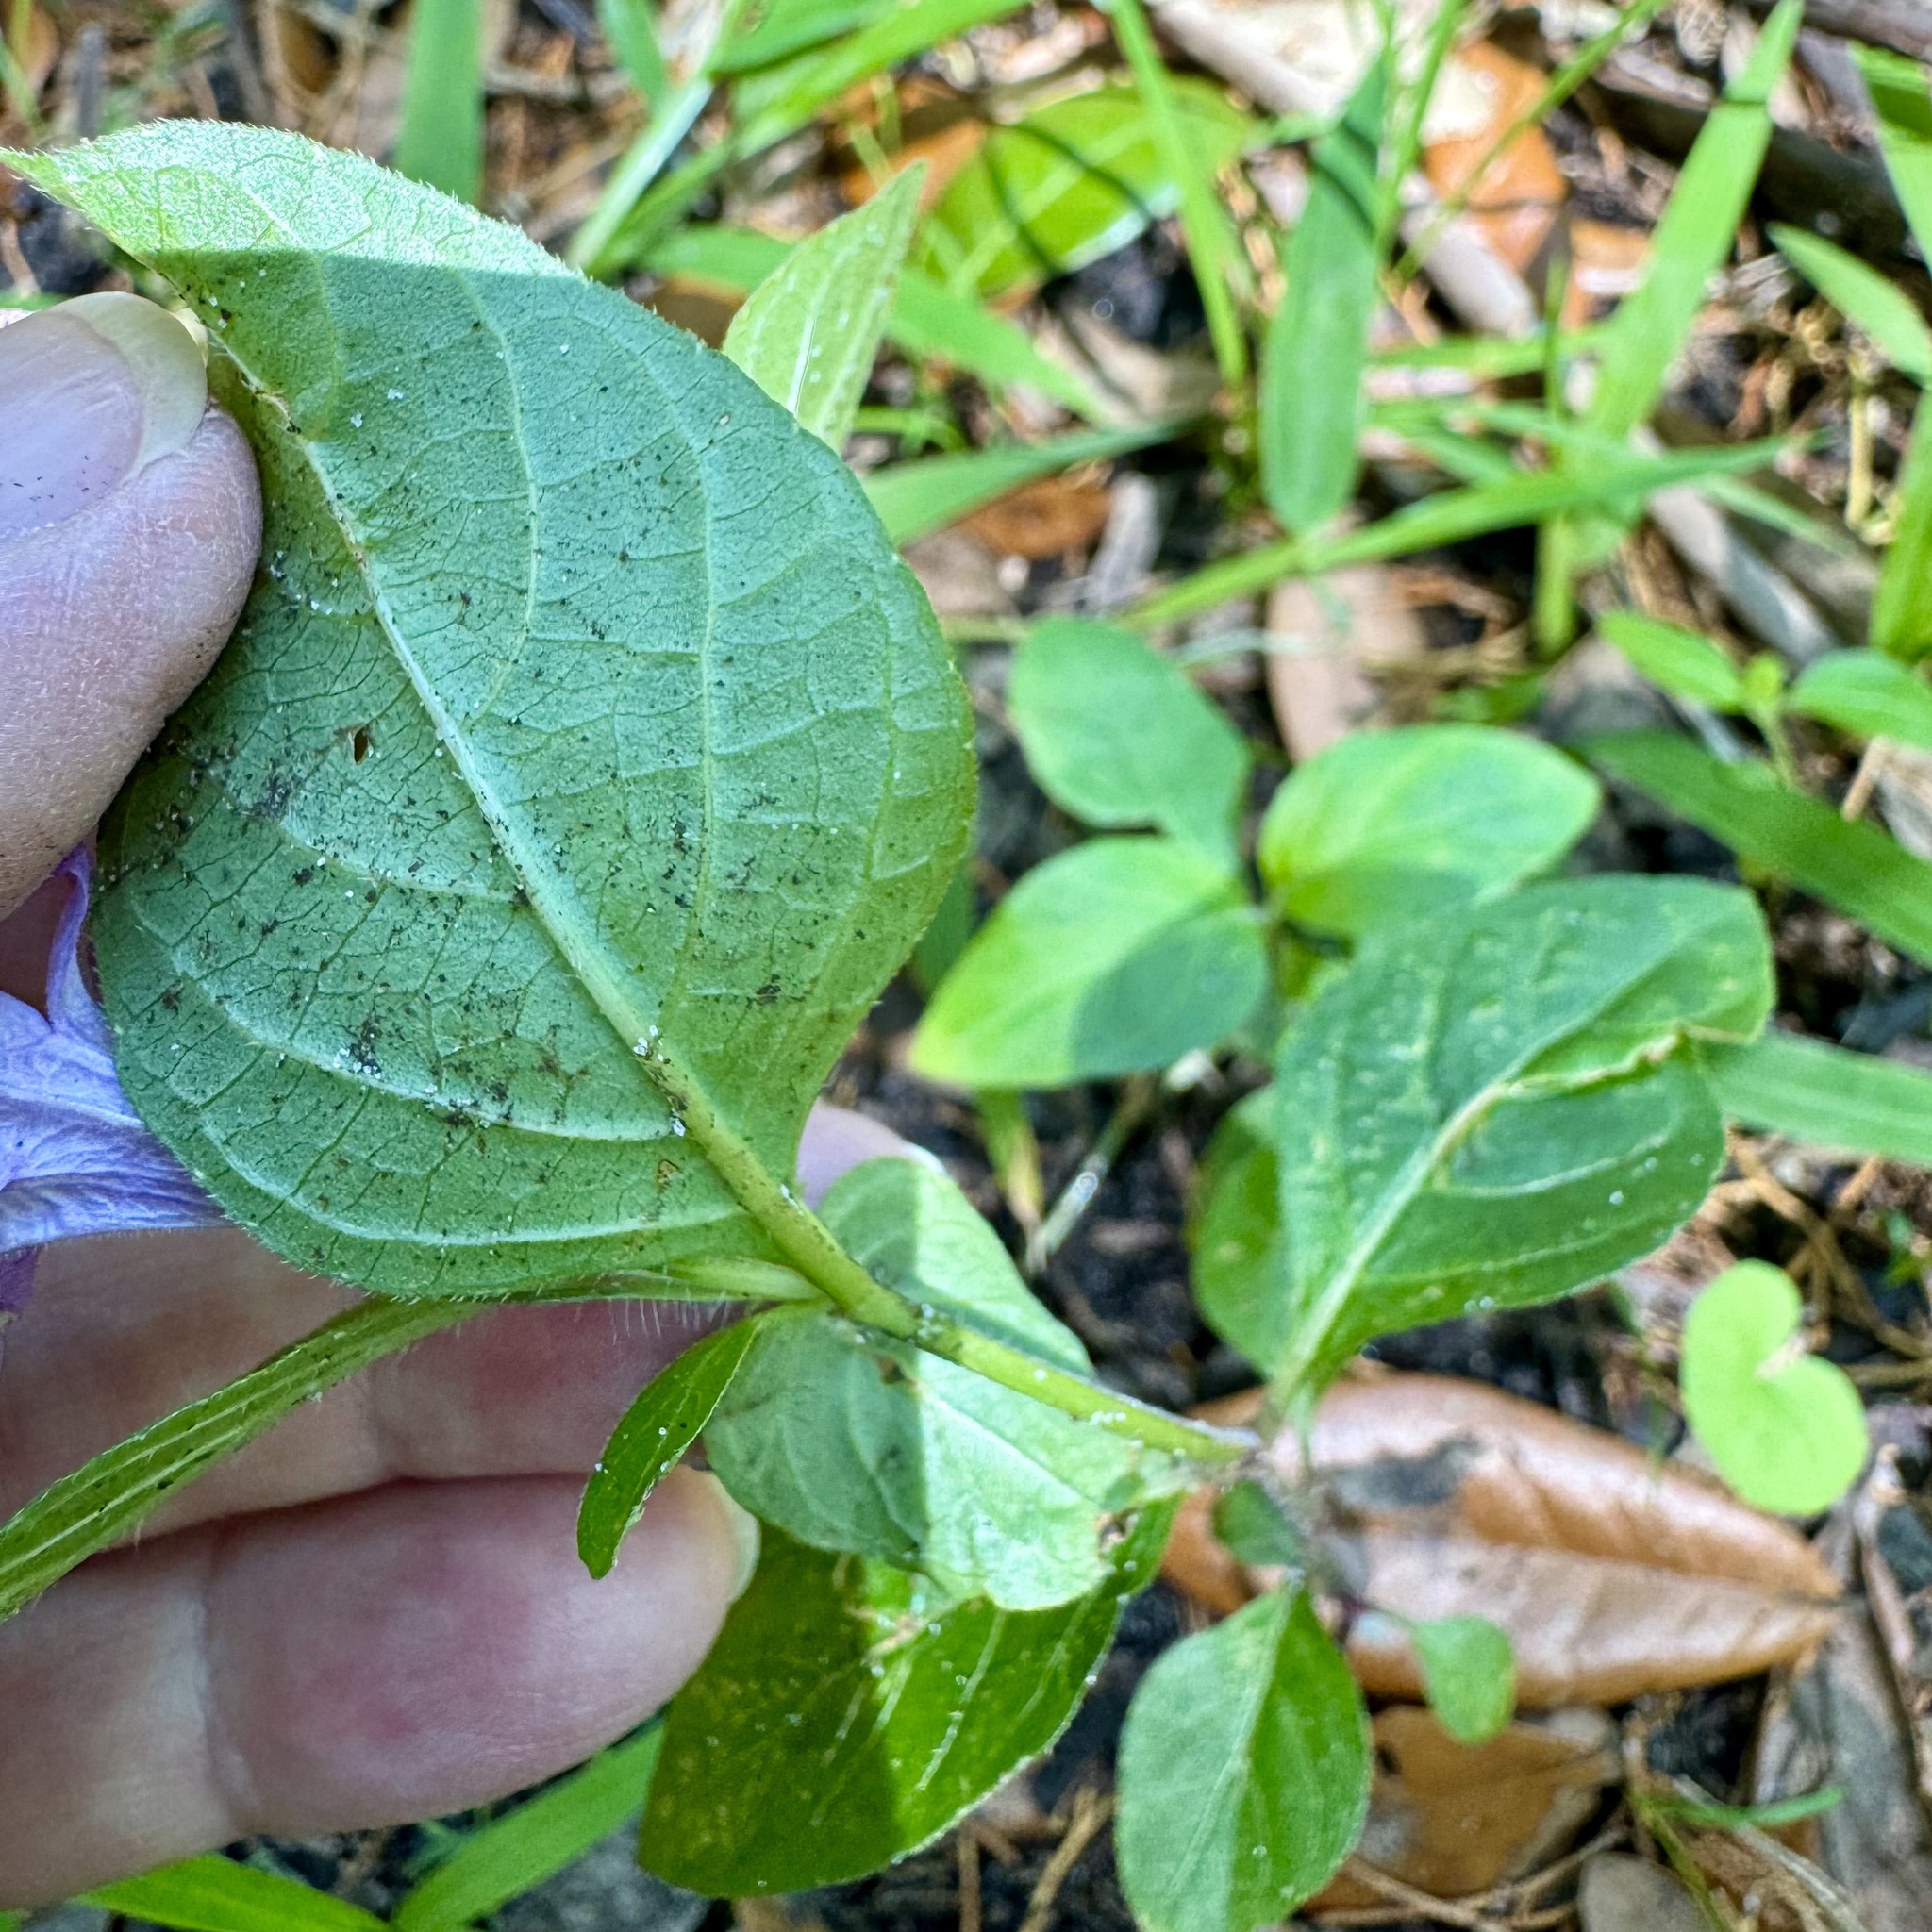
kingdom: Plantae
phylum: Tracheophyta
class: Magnoliopsida
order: Lamiales
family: Acanthaceae
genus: Ruellia
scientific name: Ruellia caroliniensis
